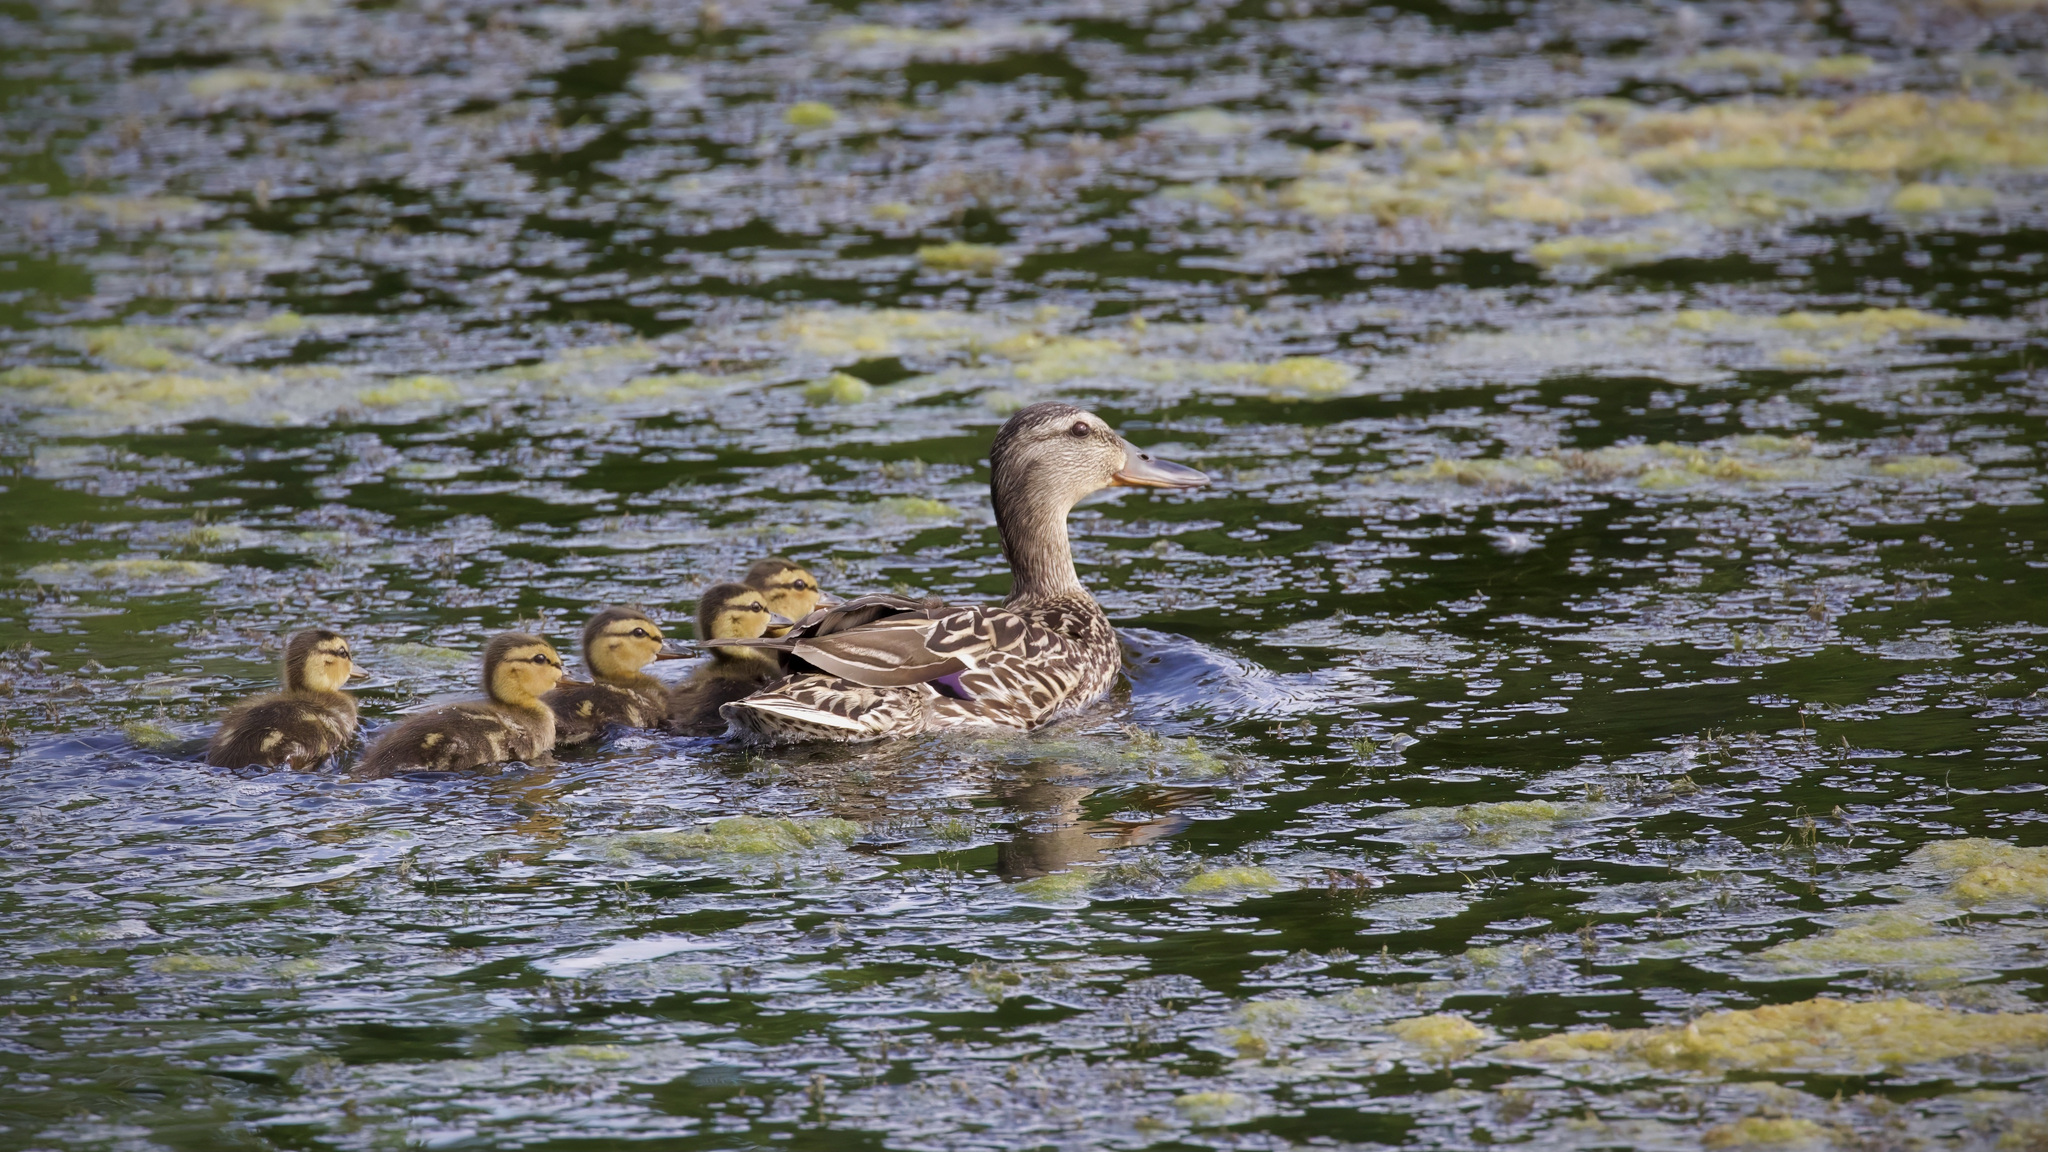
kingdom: Animalia
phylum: Chordata
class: Aves
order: Anseriformes
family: Anatidae
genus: Anas
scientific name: Anas platyrhynchos
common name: Mallard
